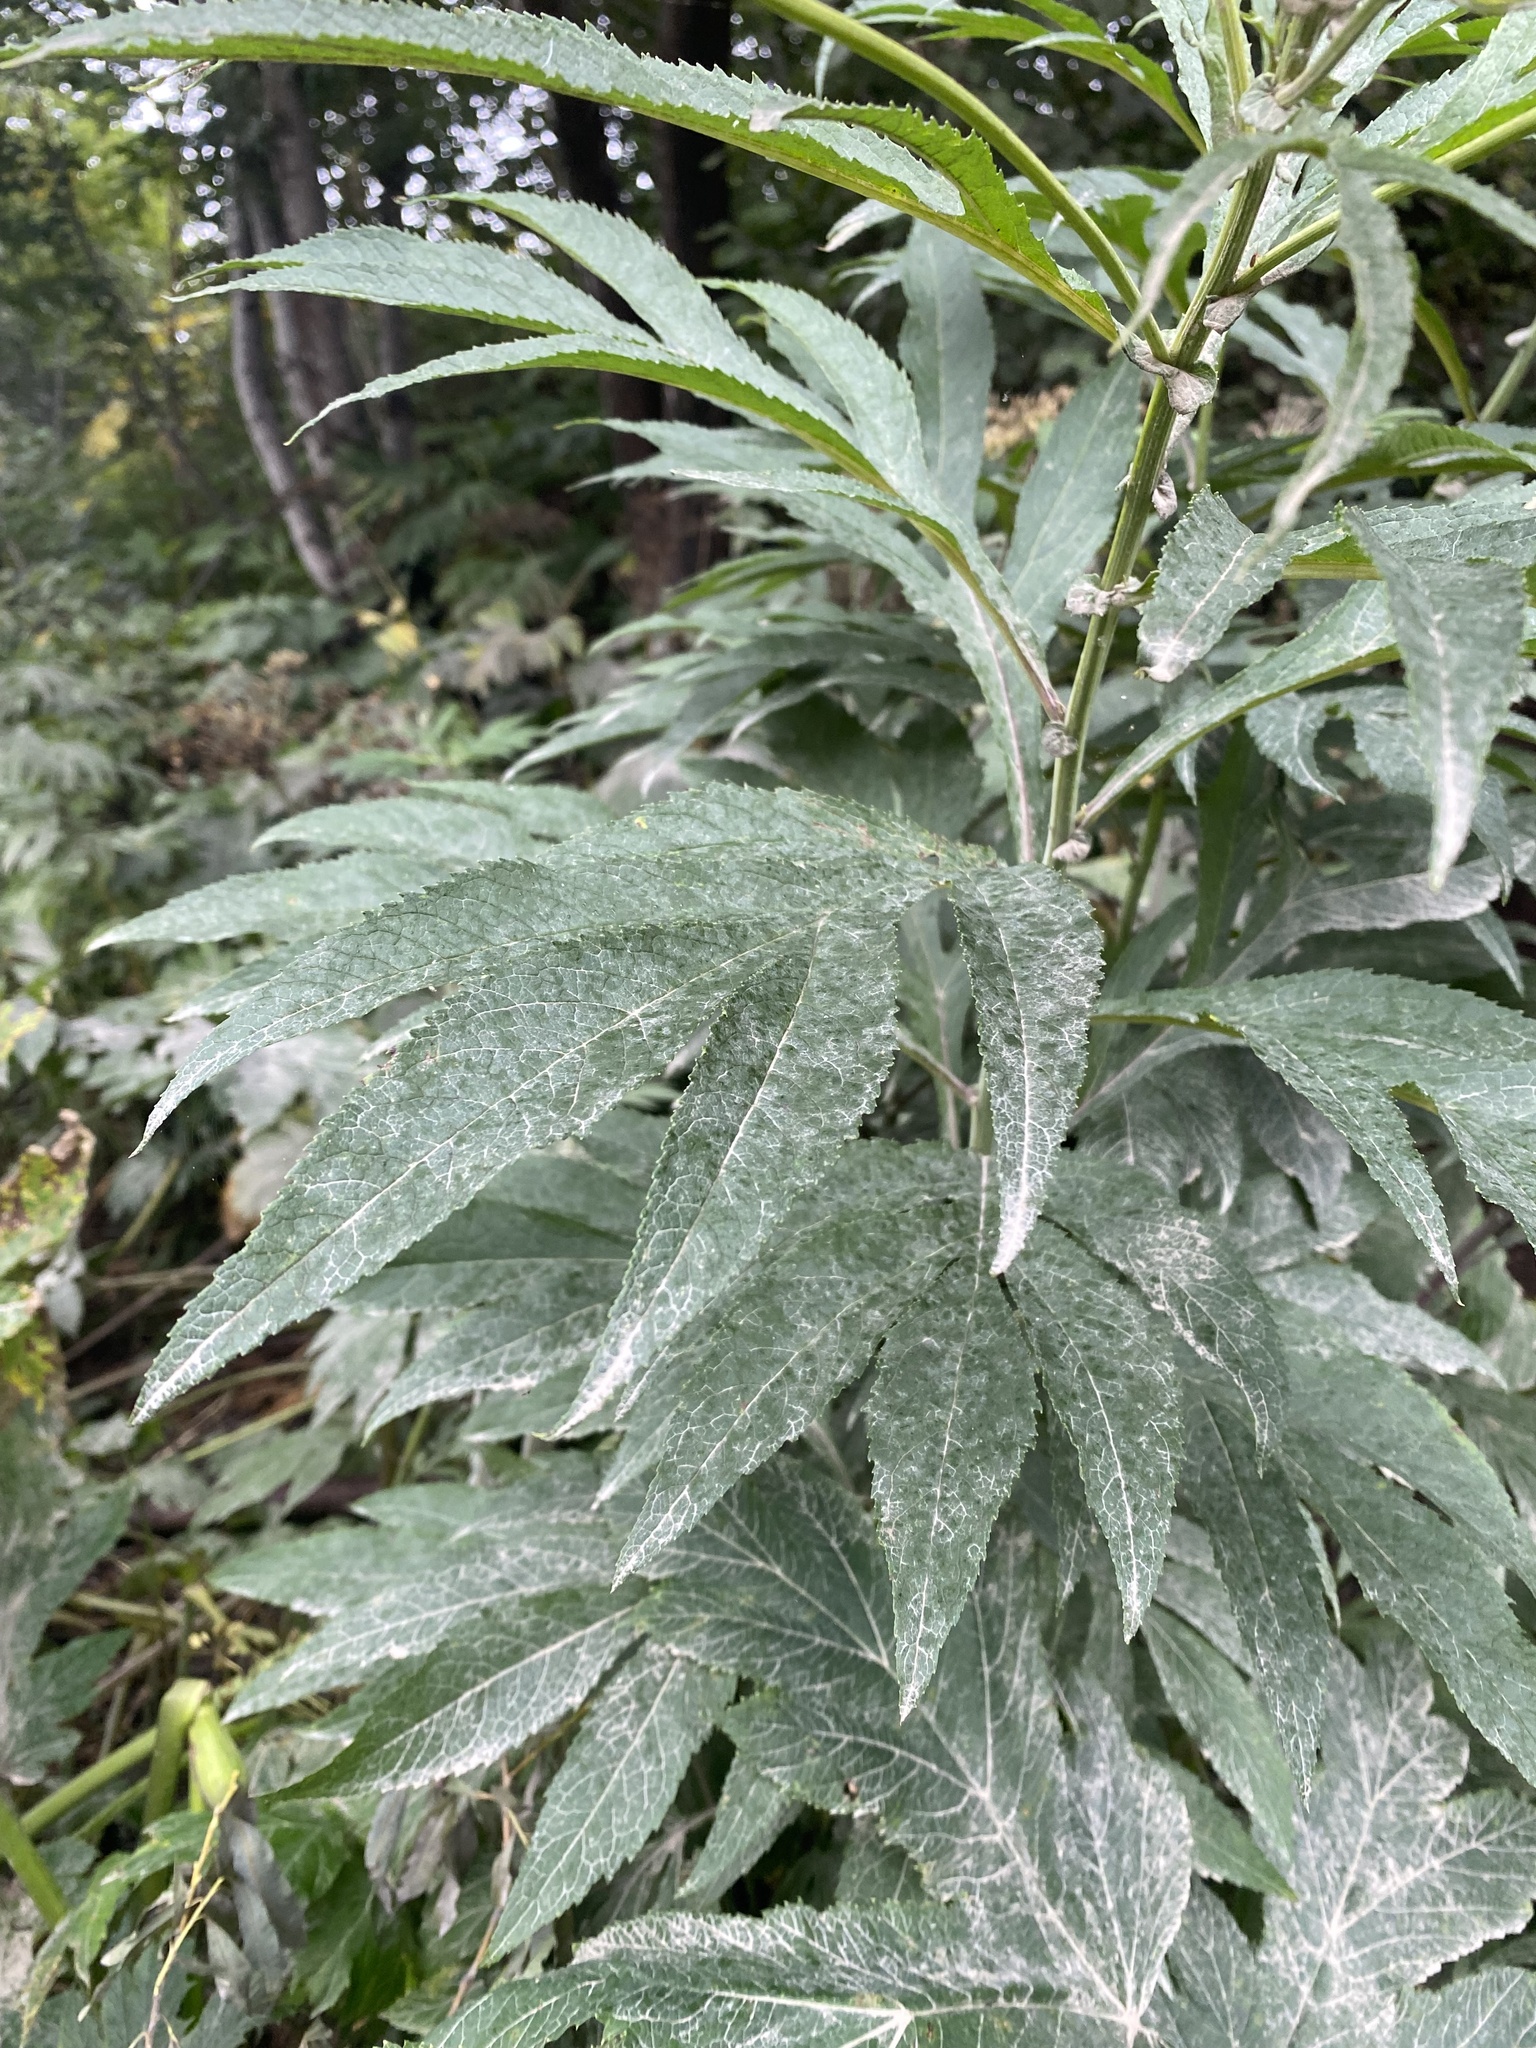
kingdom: Plantae
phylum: Tracheophyta
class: Magnoliopsida
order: Asterales
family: Asteraceae
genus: Jacobaea
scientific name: Jacobaea cannabifolia
